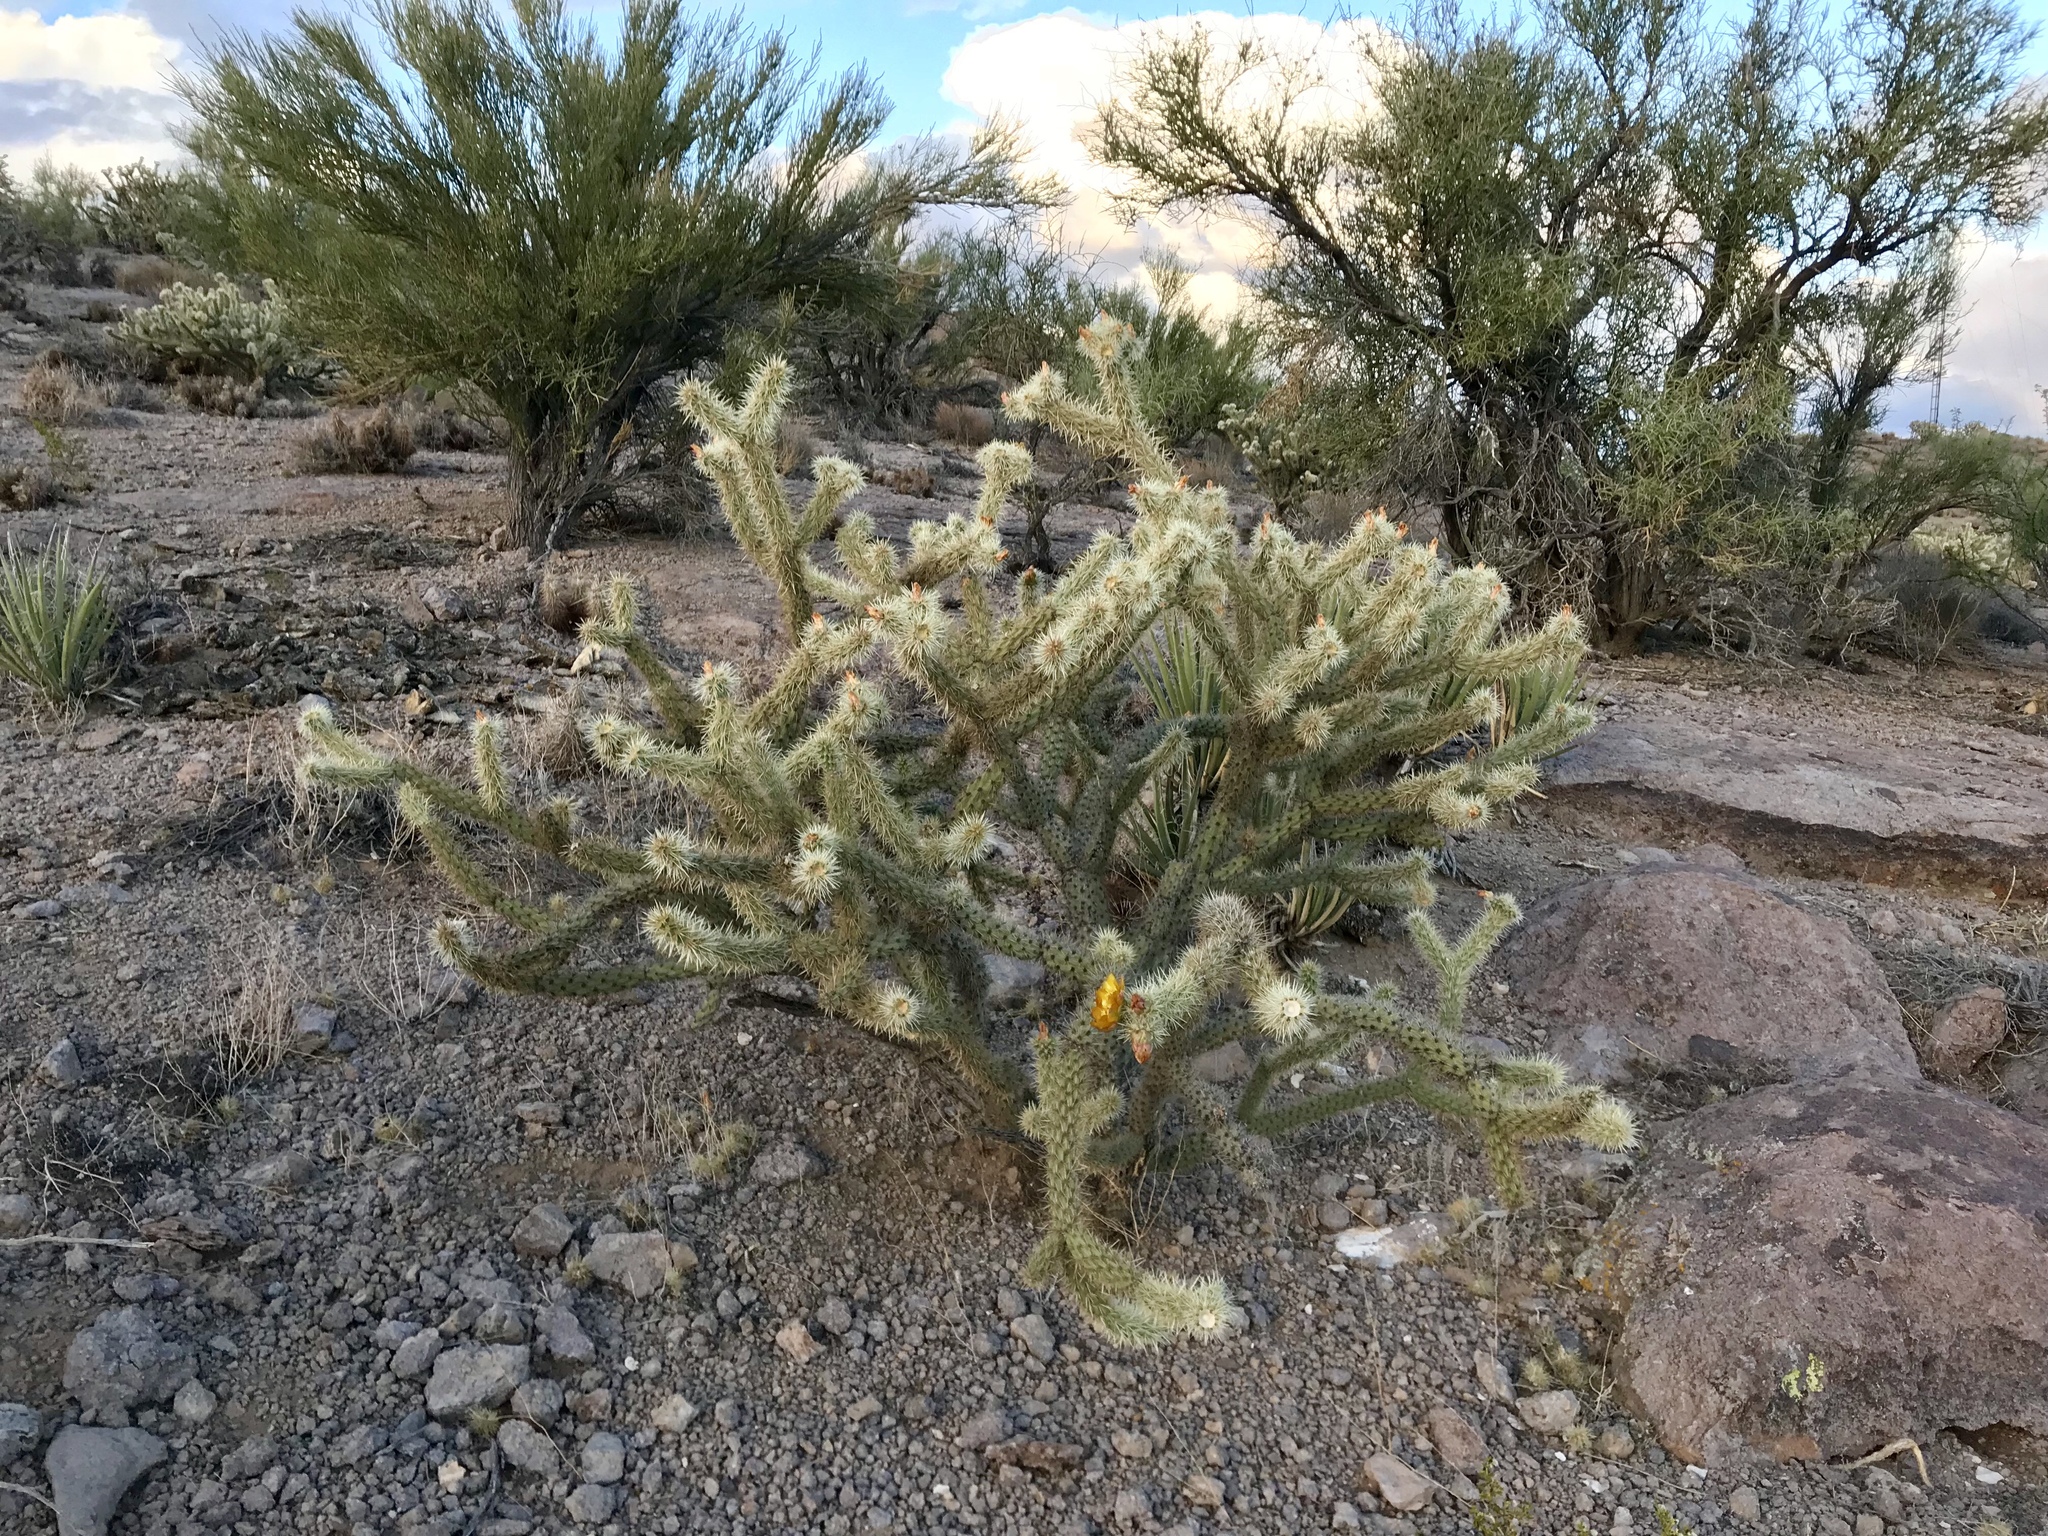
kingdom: Plantae
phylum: Tracheophyta
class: Magnoliopsida
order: Caryophyllales
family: Cactaceae
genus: Cylindropuntia
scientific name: Cylindropuntia acanthocarpa
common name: Buckhorn cholla
